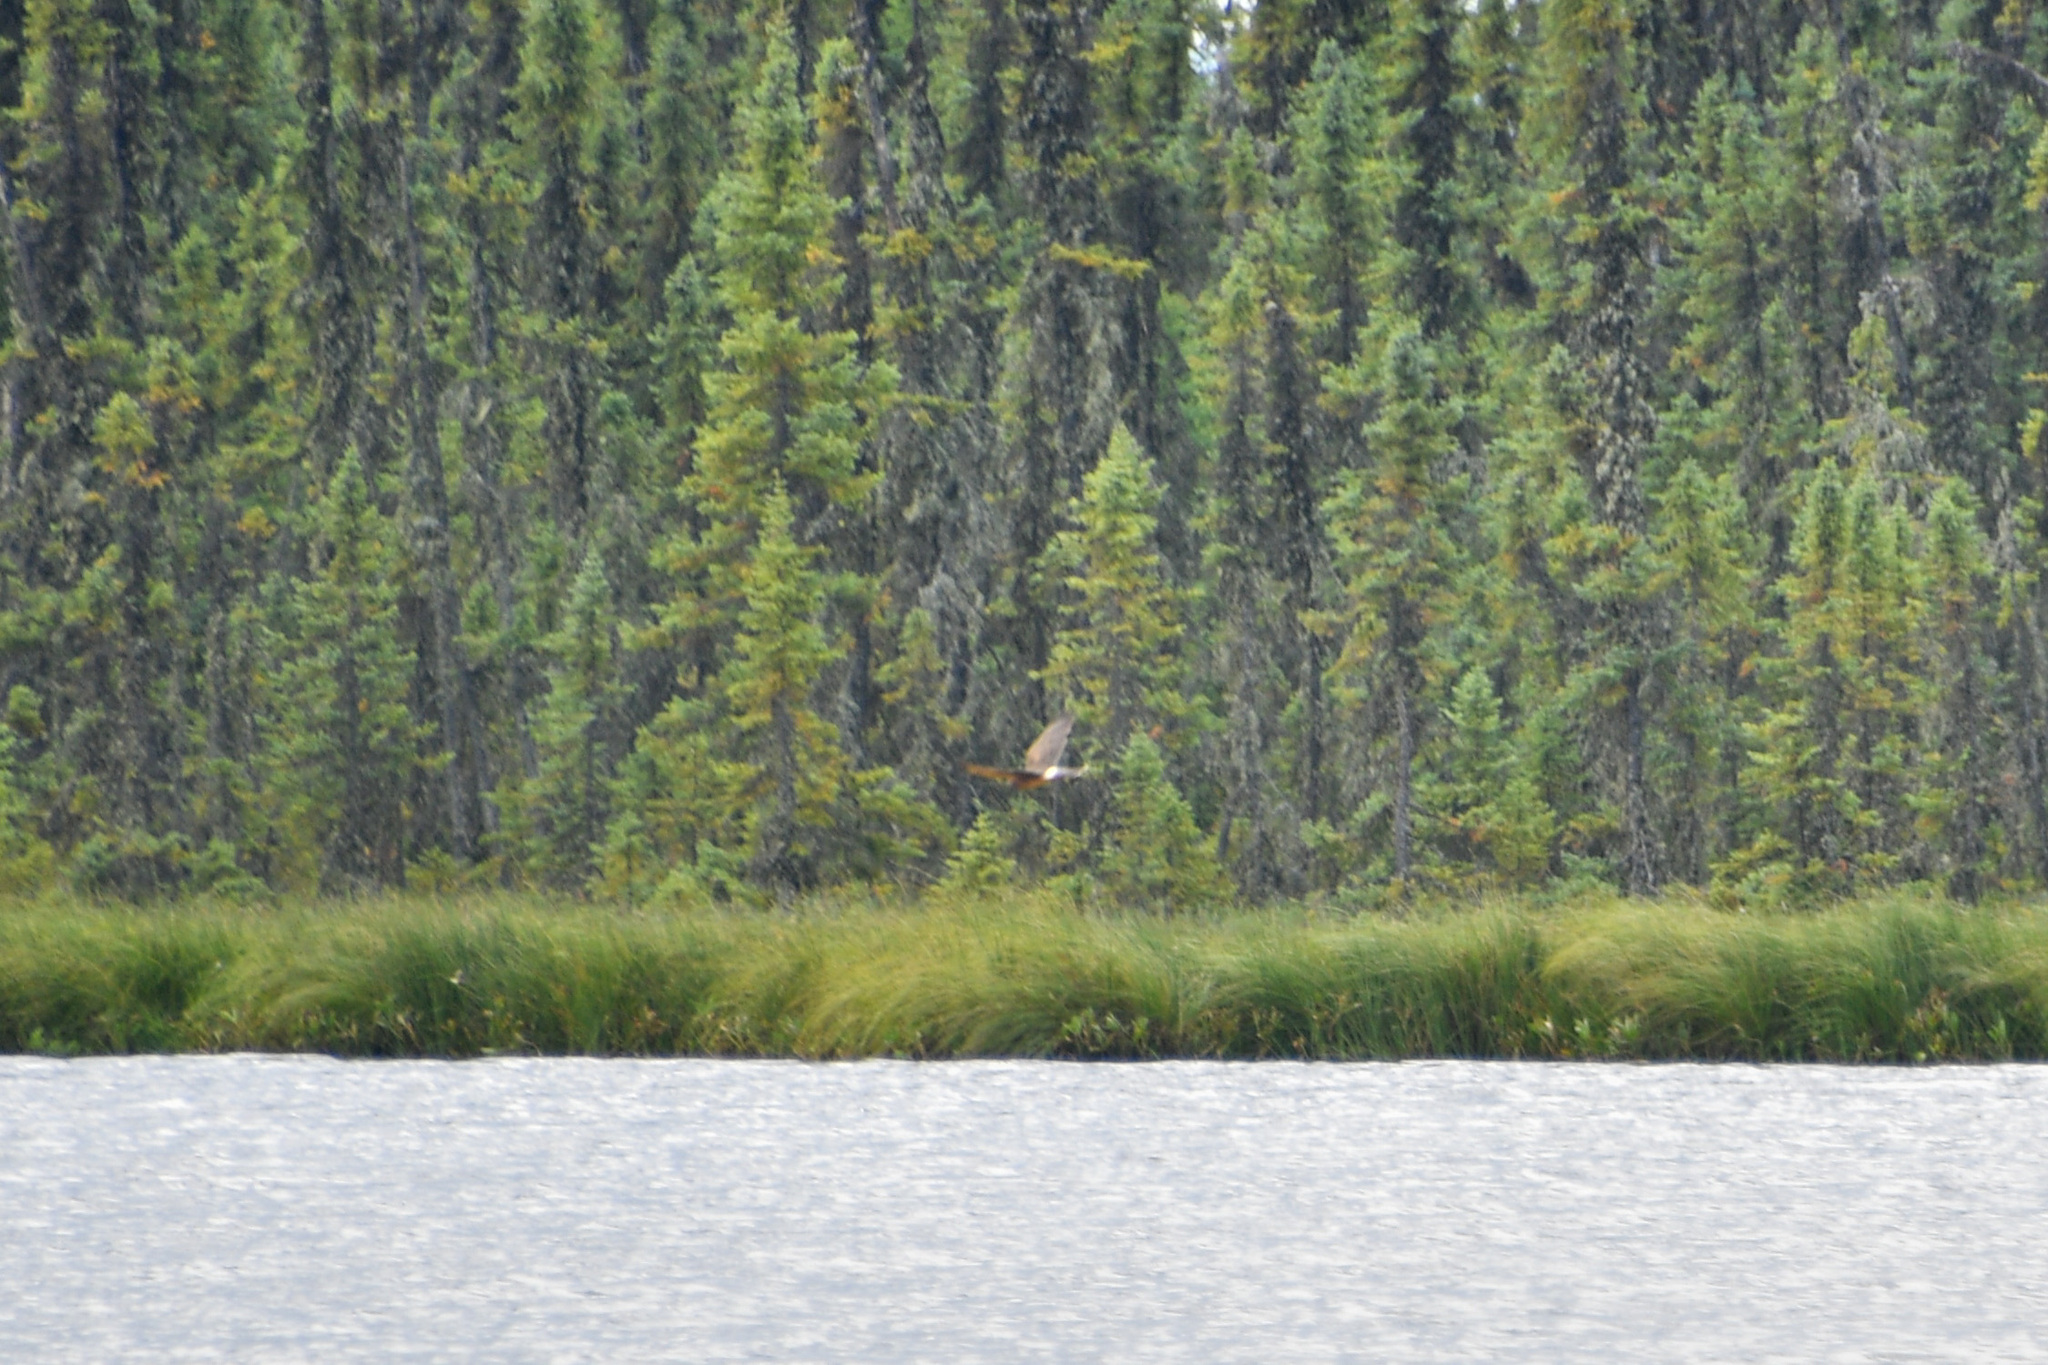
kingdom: Animalia
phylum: Chordata
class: Aves
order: Accipitriformes
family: Accipitridae
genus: Circus
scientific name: Circus cyaneus
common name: Hen harrier
